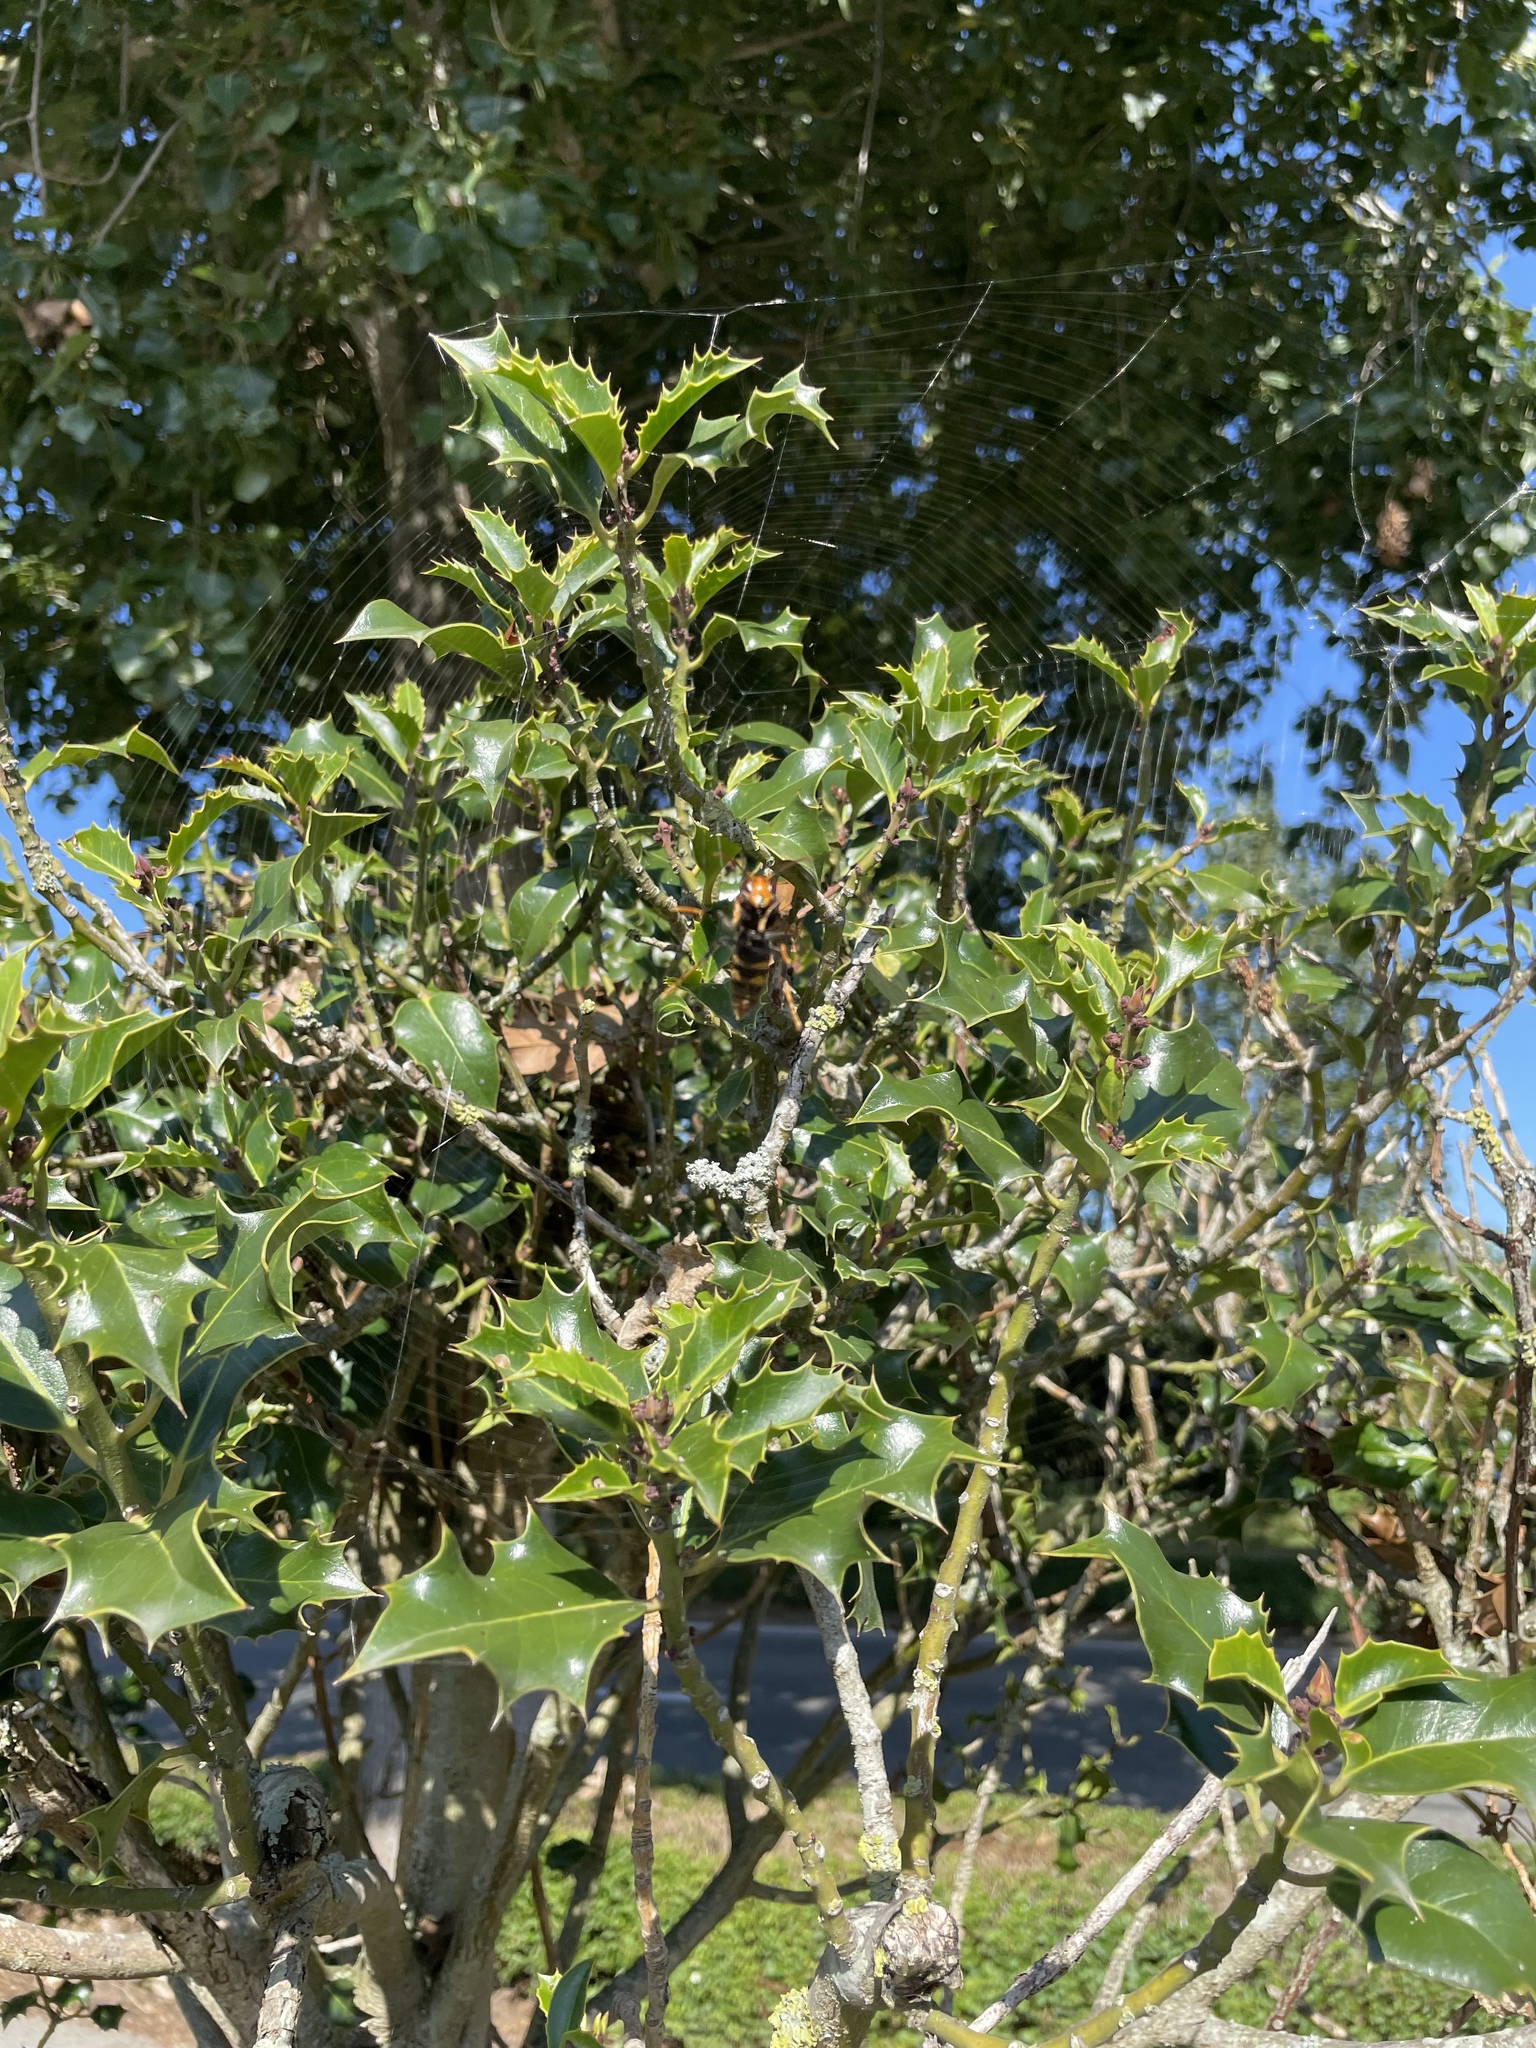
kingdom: Animalia
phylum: Arthropoda
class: Insecta
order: Hymenoptera
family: Vespidae
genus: Vespa
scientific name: Vespa velutina
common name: Asian hornet
